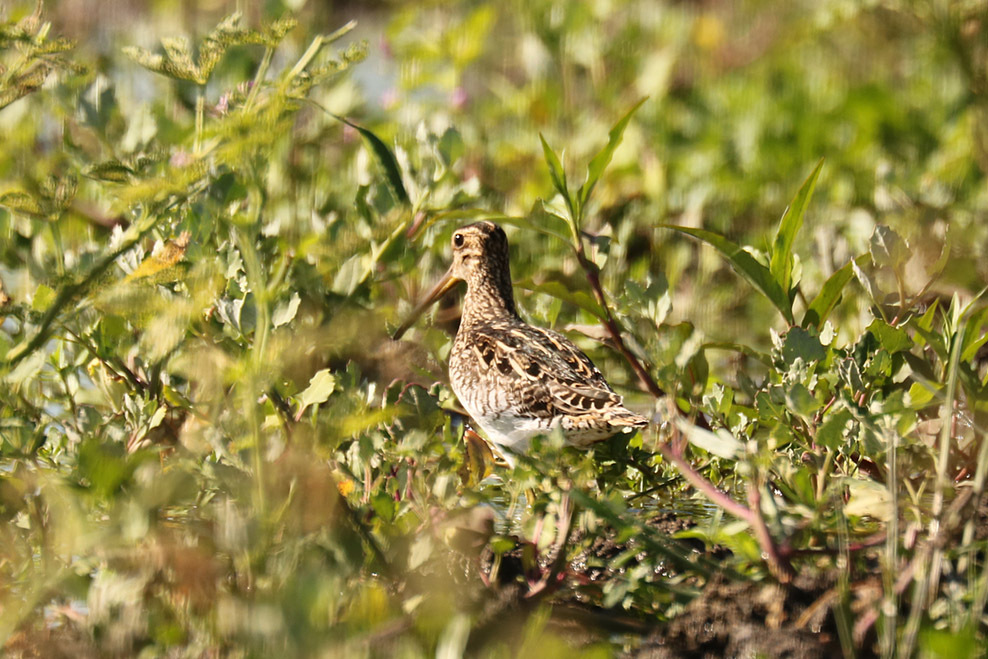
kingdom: Animalia
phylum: Chordata
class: Aves
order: Charadriiformes
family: Scolopacidae
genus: Gallinago
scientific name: Gallinago paraguaiae
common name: South american snipe
